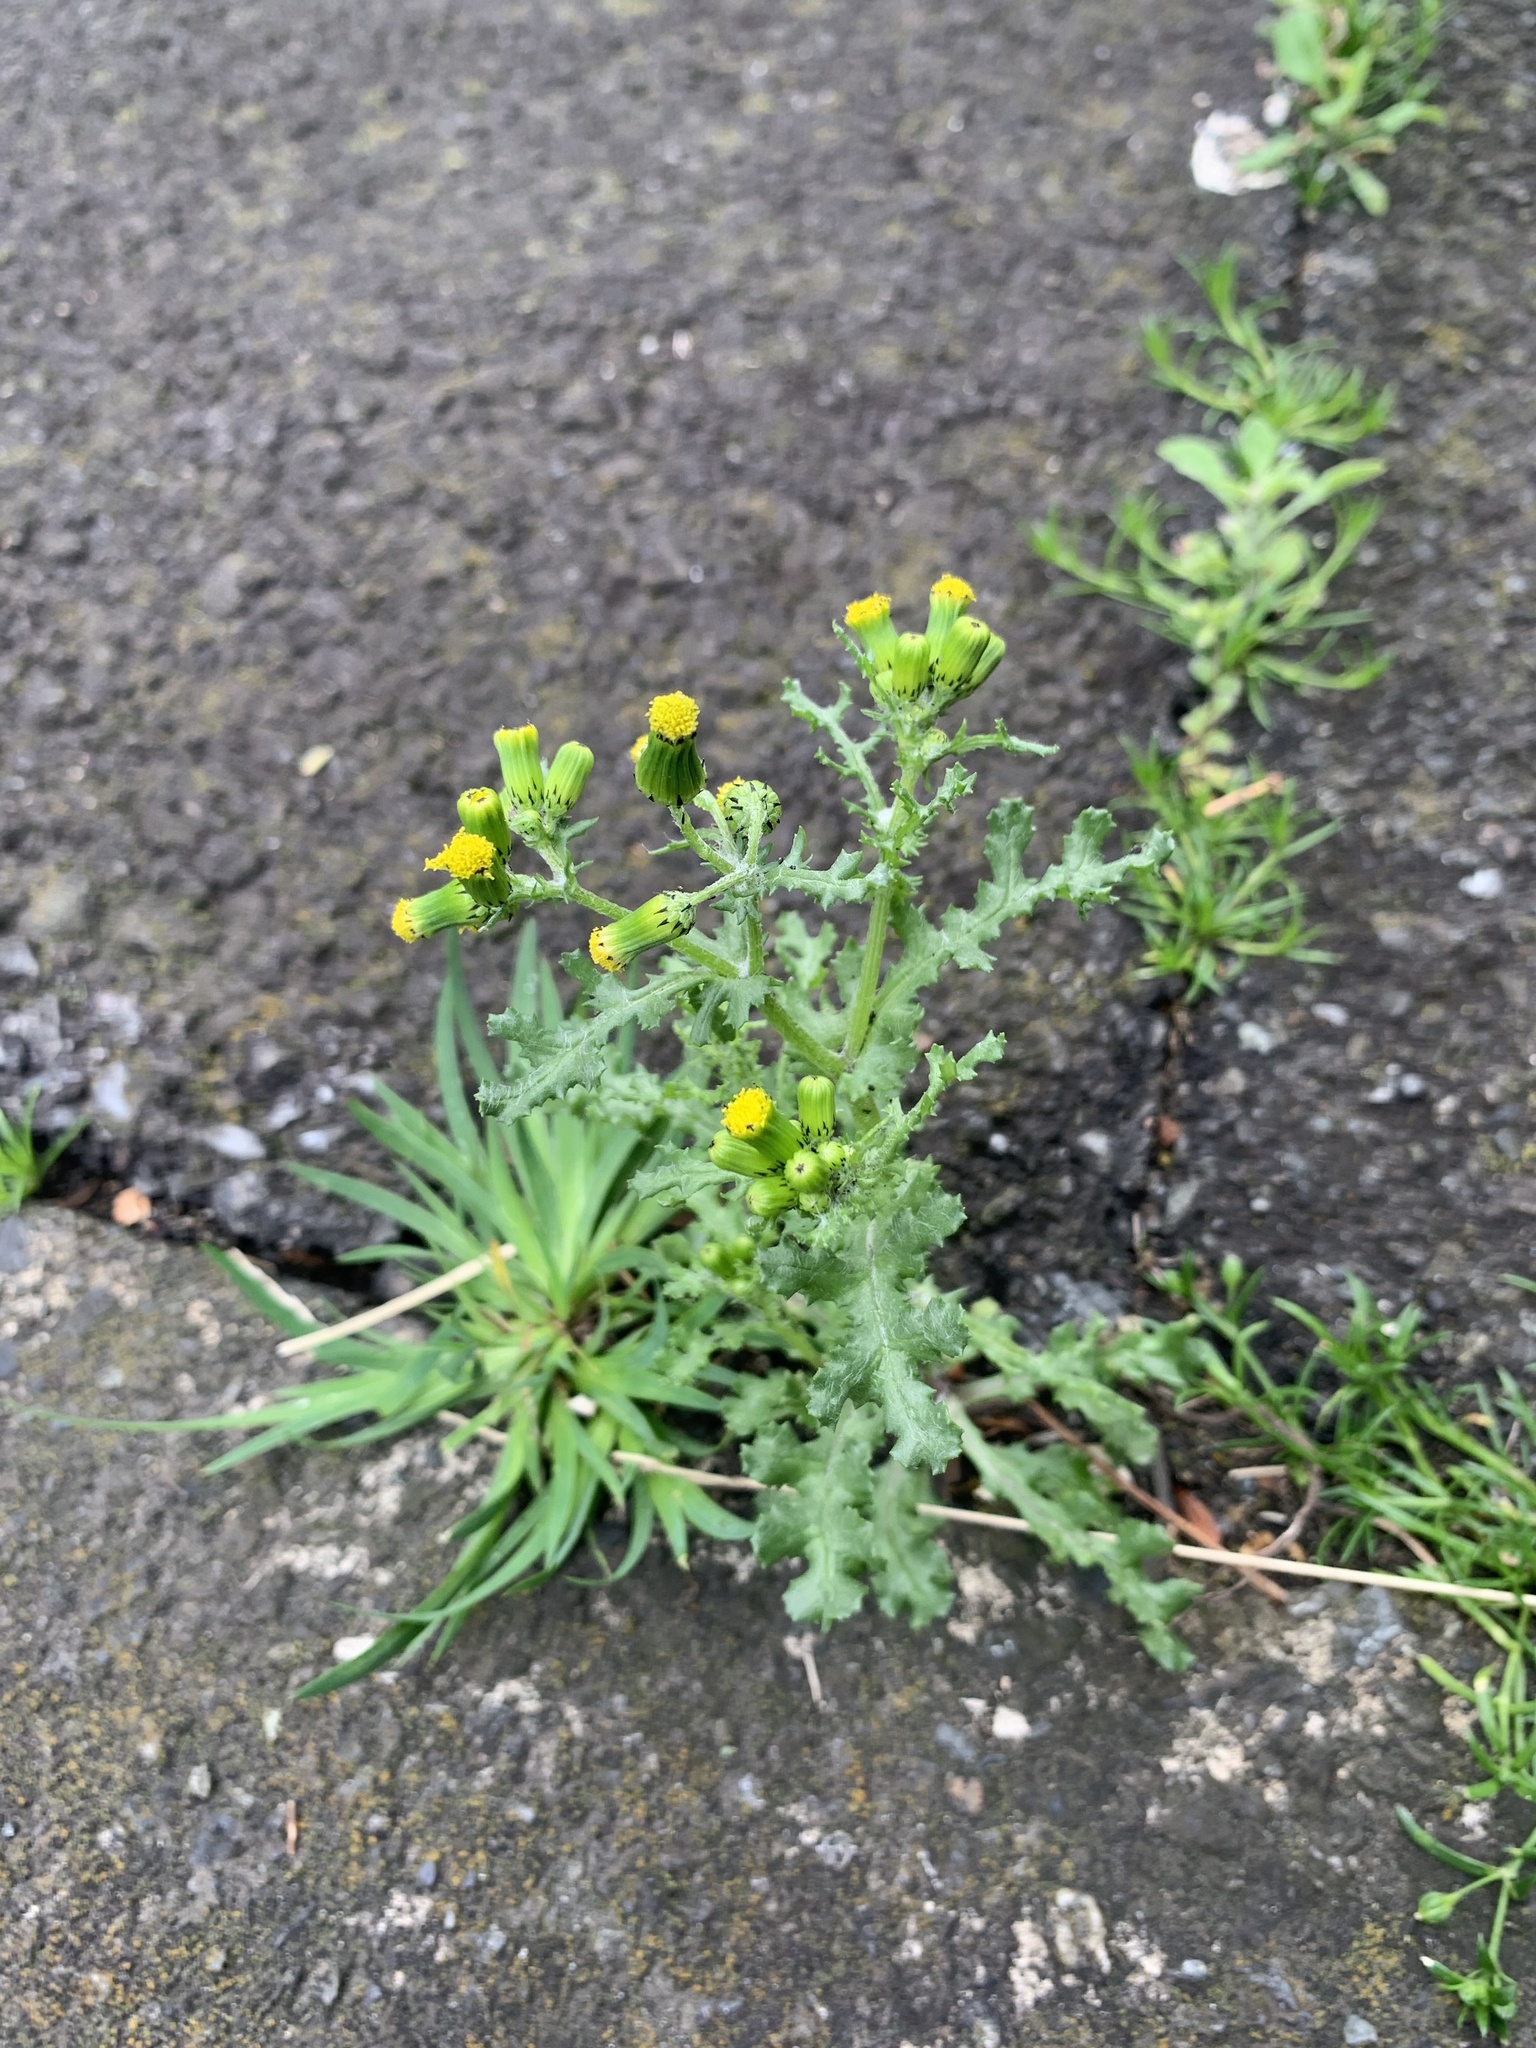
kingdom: Plantae
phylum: Tracheophyta
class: Magnoliopsida
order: Asterales
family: Asteraceae
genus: Senecio
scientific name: Senecio vulgaris
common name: Old-man-in-the-spring
